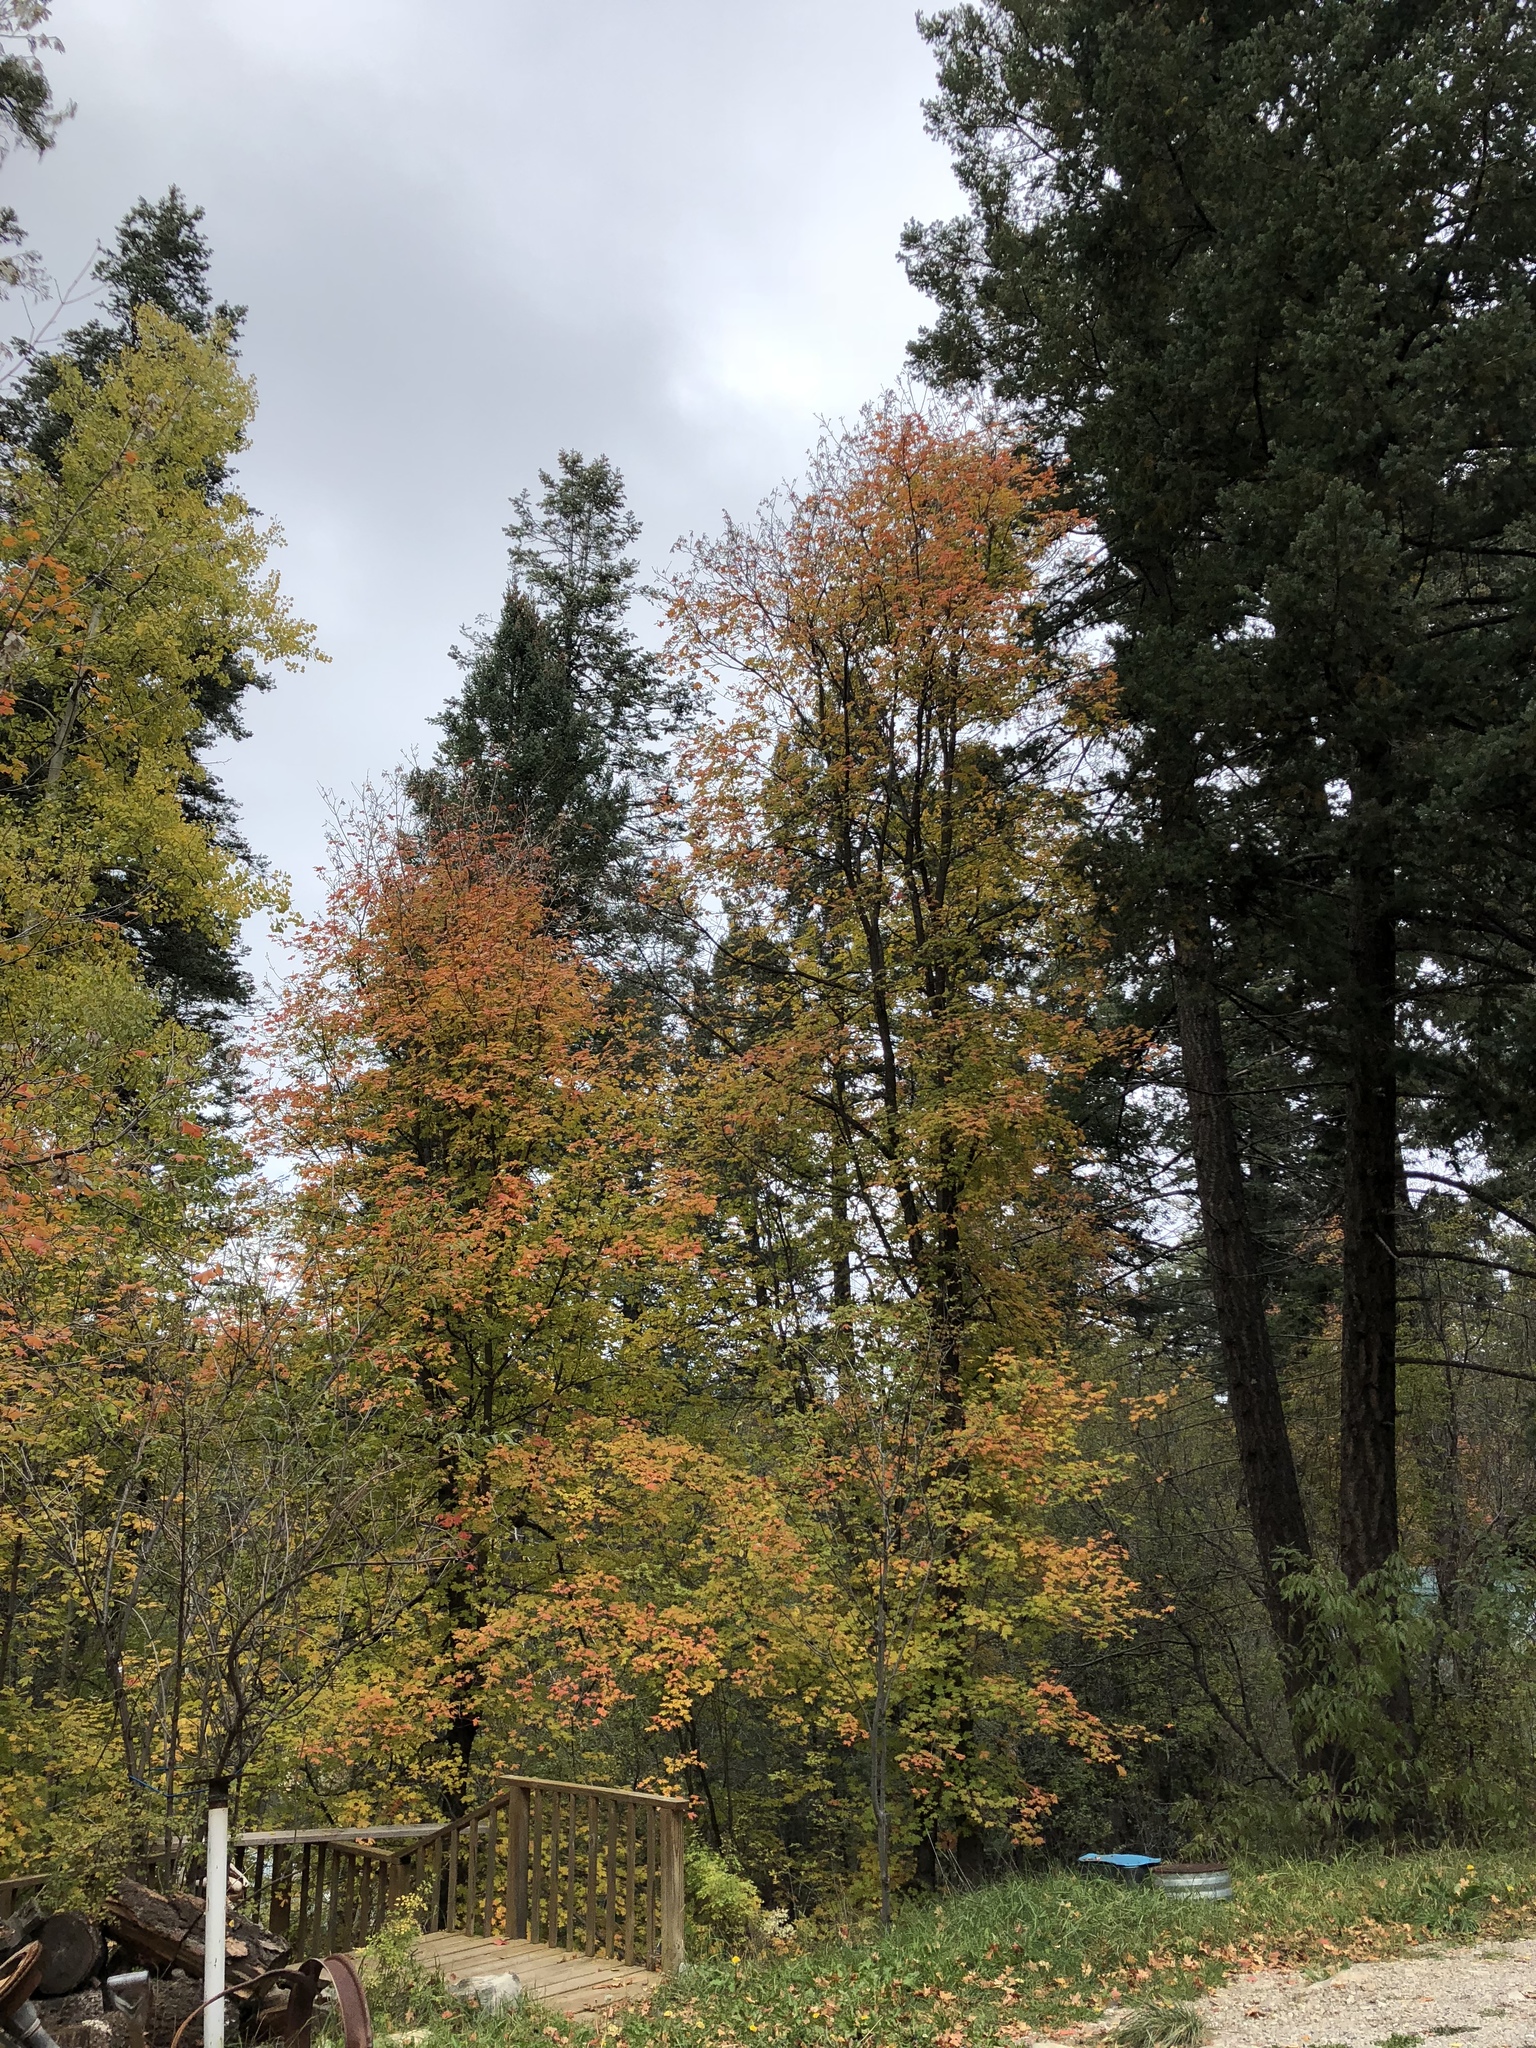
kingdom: Plantae
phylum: Tracheophyta
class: Magnoliopsida
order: Sapindales
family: Sapindaceae
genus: Acer
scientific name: Acer grandidentatum
